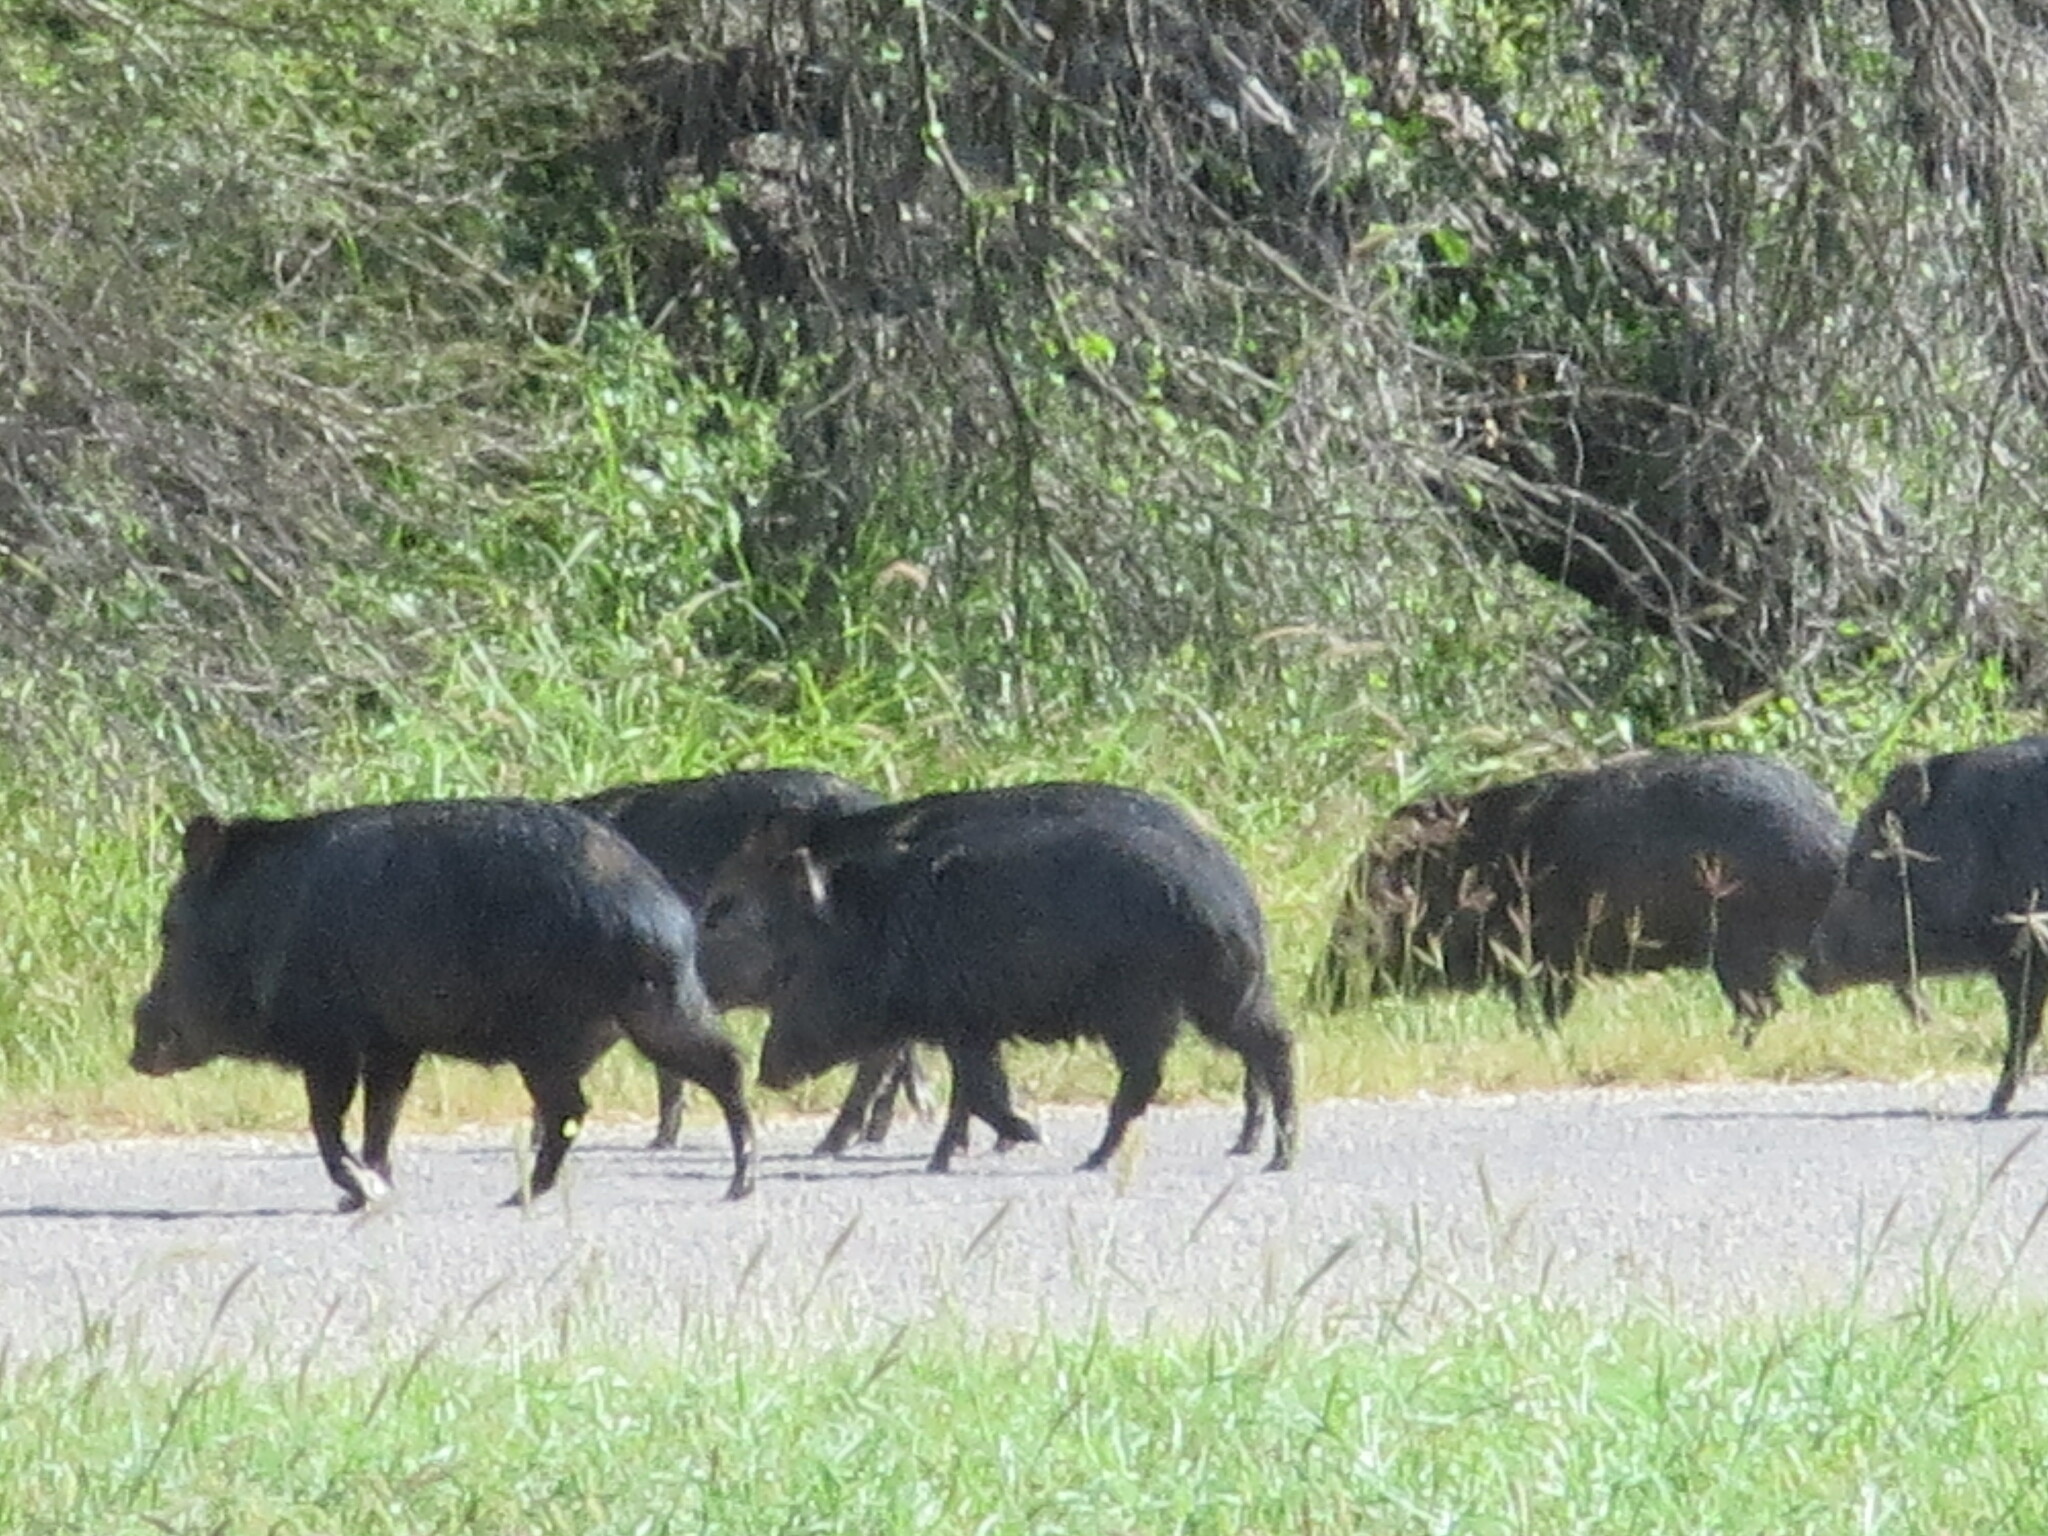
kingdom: Animalia
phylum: Chordata
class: Mammalia
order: Artiodactyla
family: Tayassuidae
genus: Pecari
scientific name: Pecari tajacu
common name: Collared peccary
